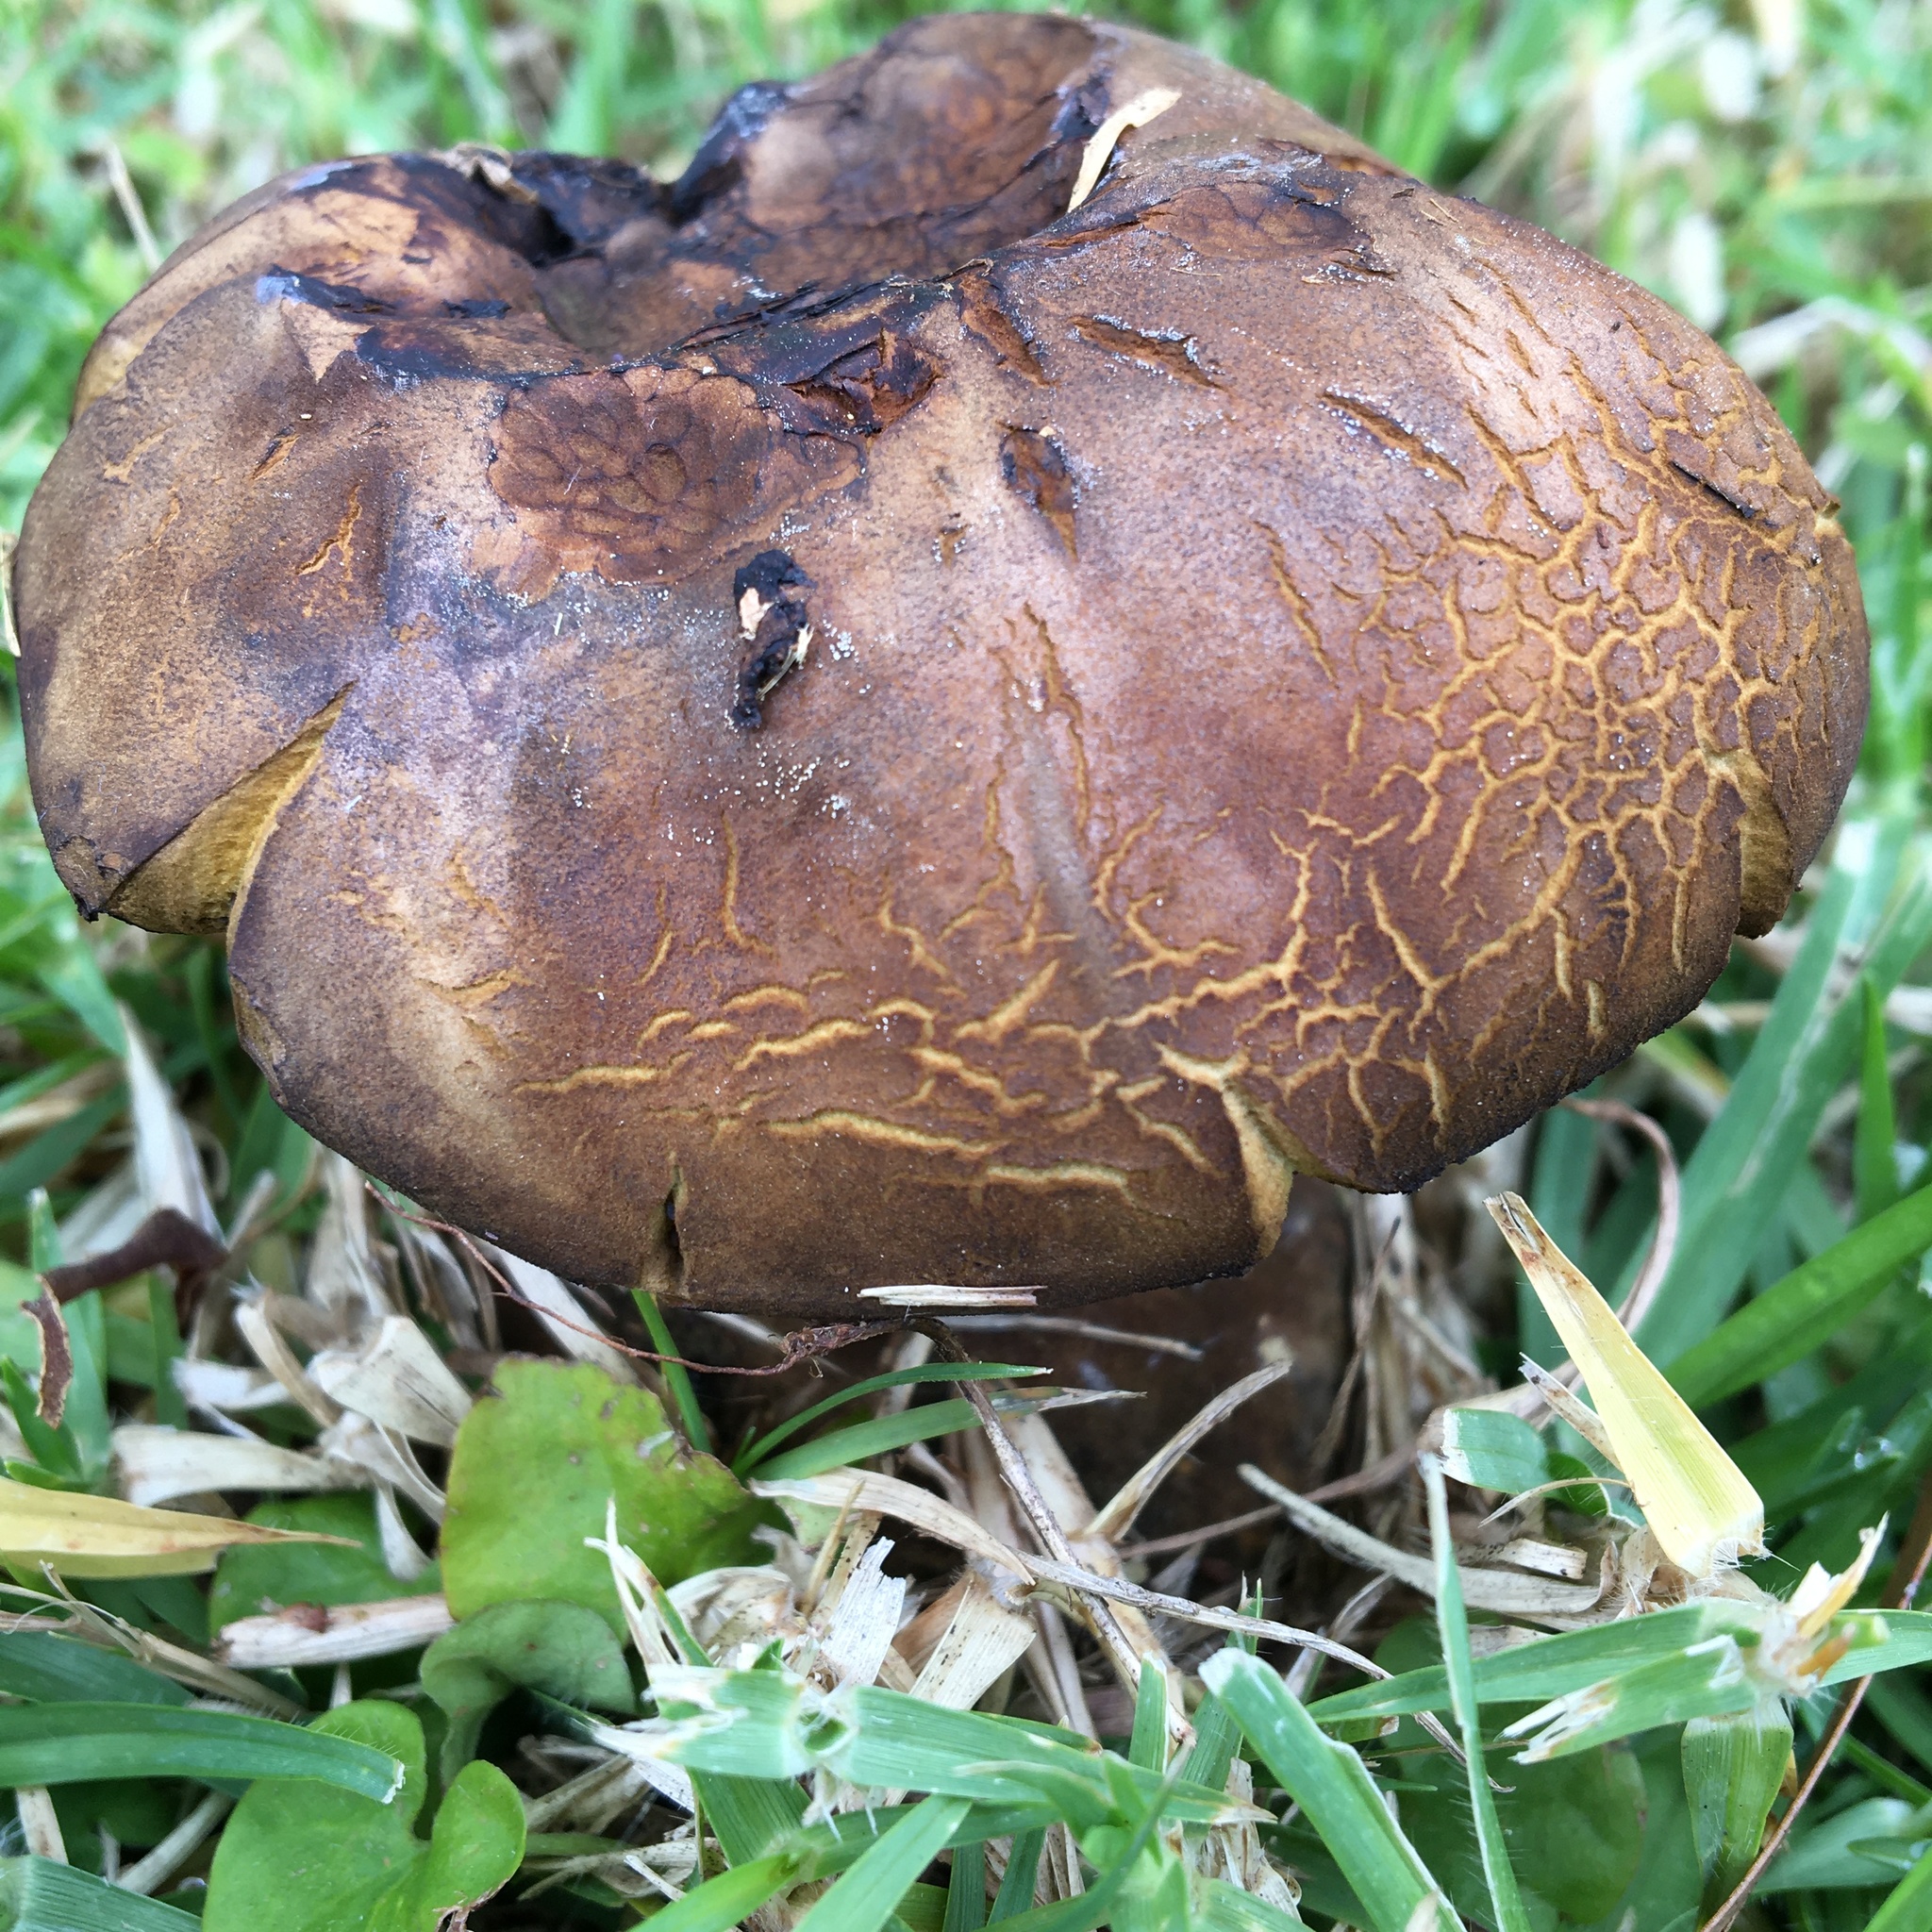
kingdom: Fungi
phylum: Basidiomycota
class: Agaricomycetes
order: Boletales
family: Boletinellaceae
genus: Phlebopus
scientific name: Phlebopus marginatus
